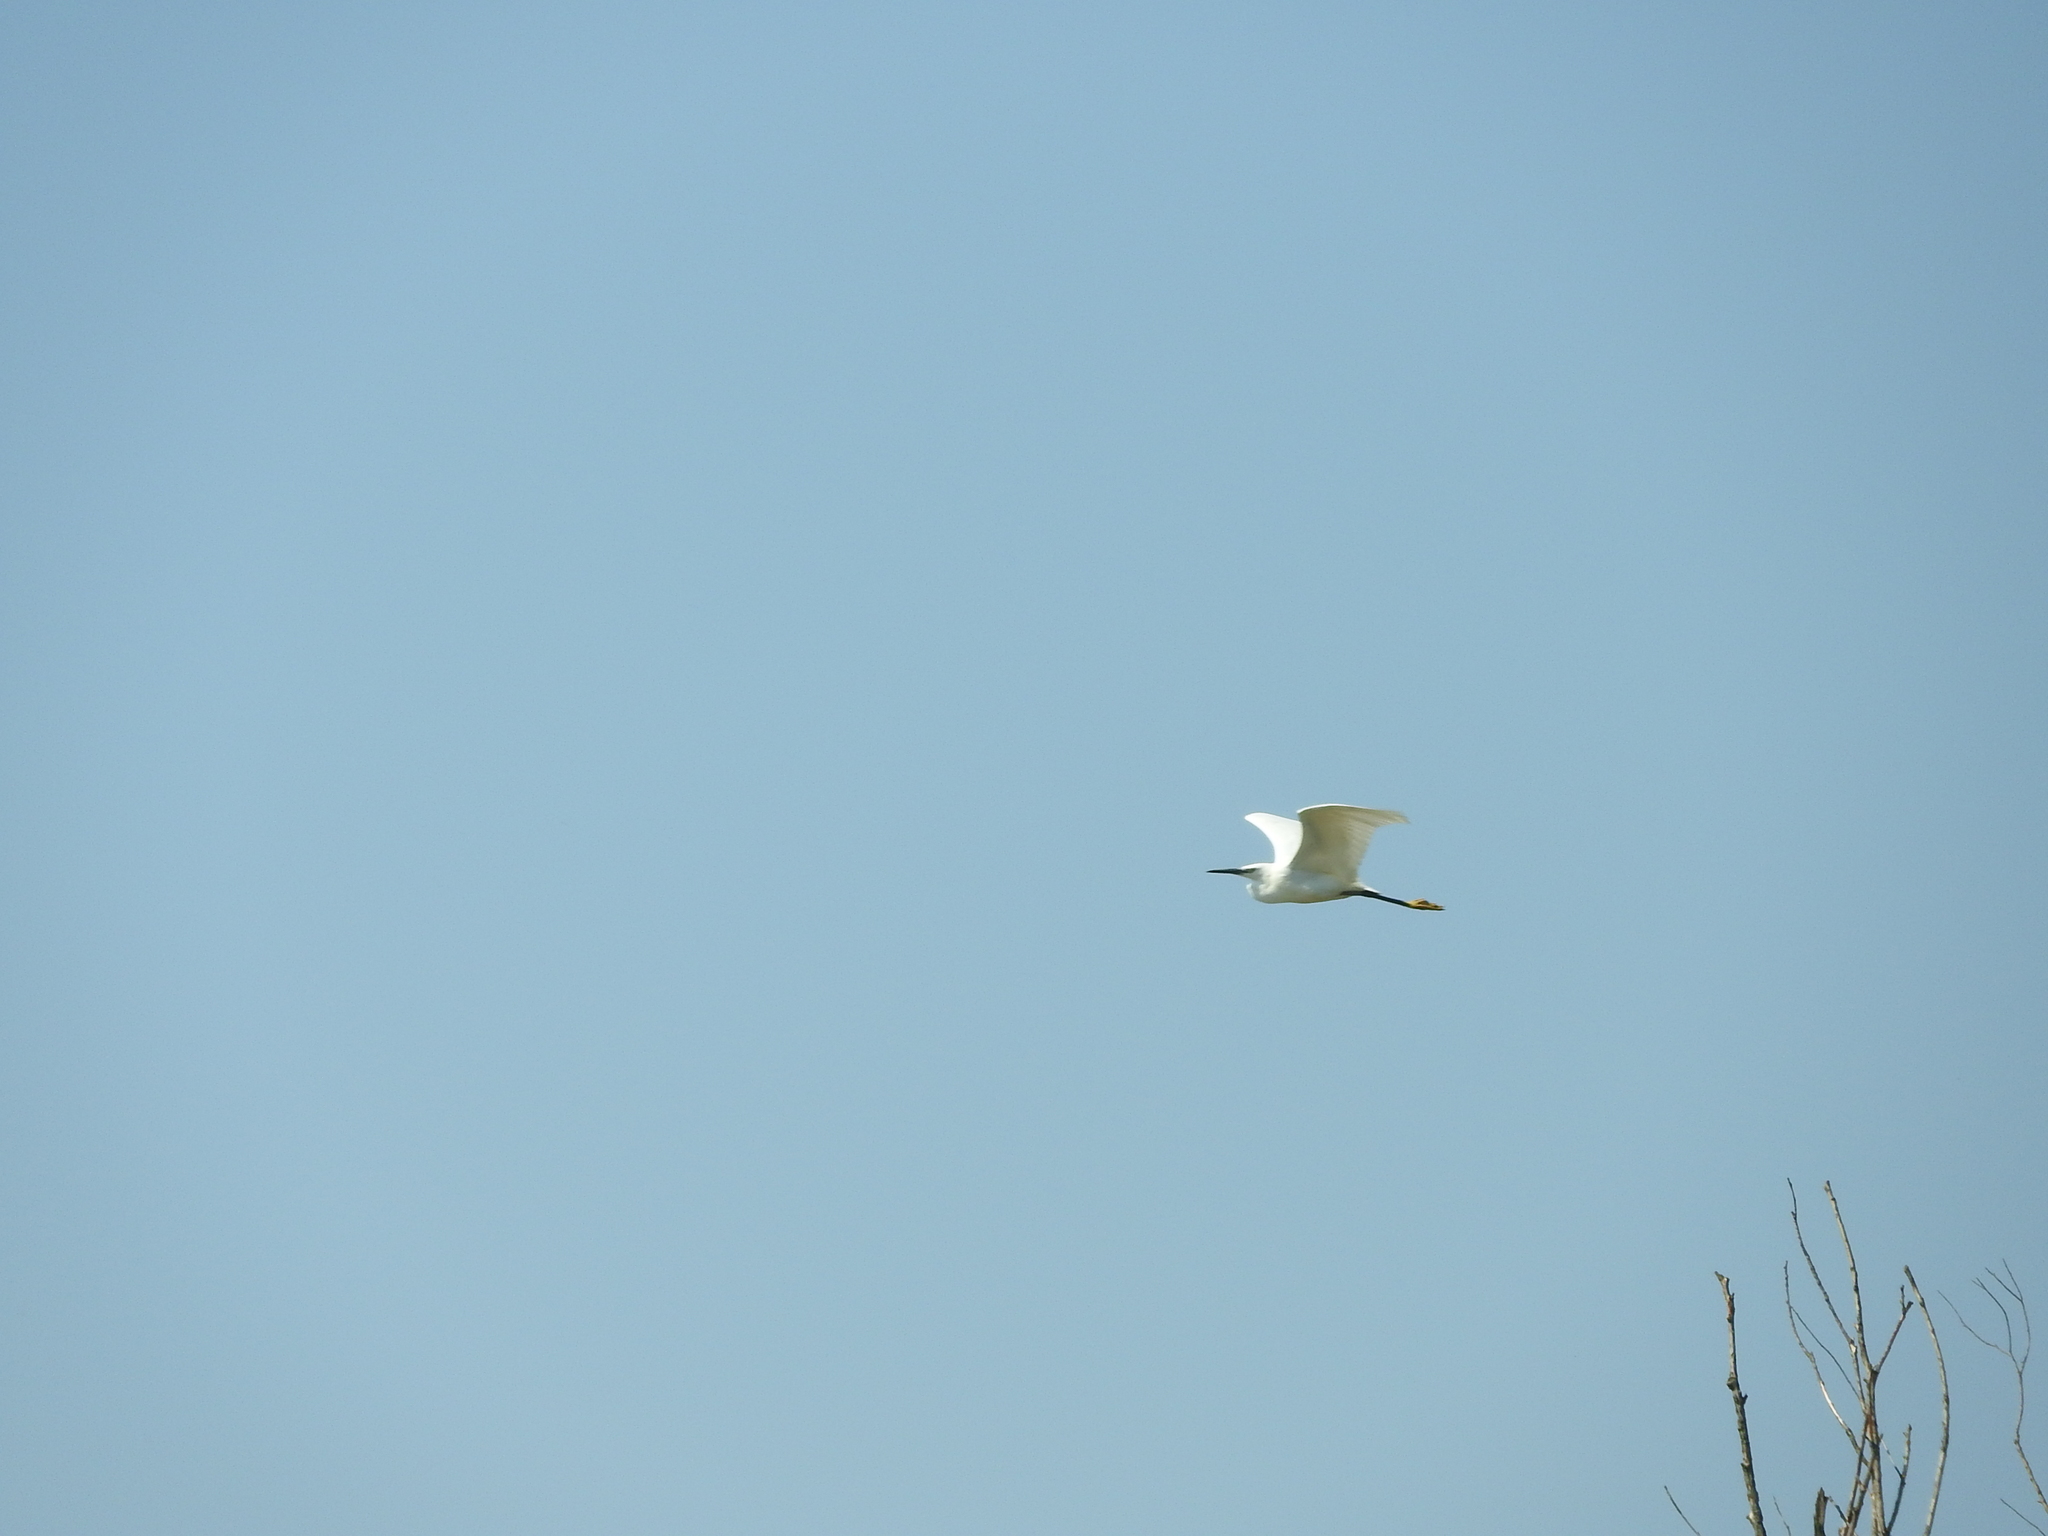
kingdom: Animalia
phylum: Chordata
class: Aves
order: Pelecaniformes
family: Ardeidae
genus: Egretta
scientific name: Egretta garzetta
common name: Little egret
